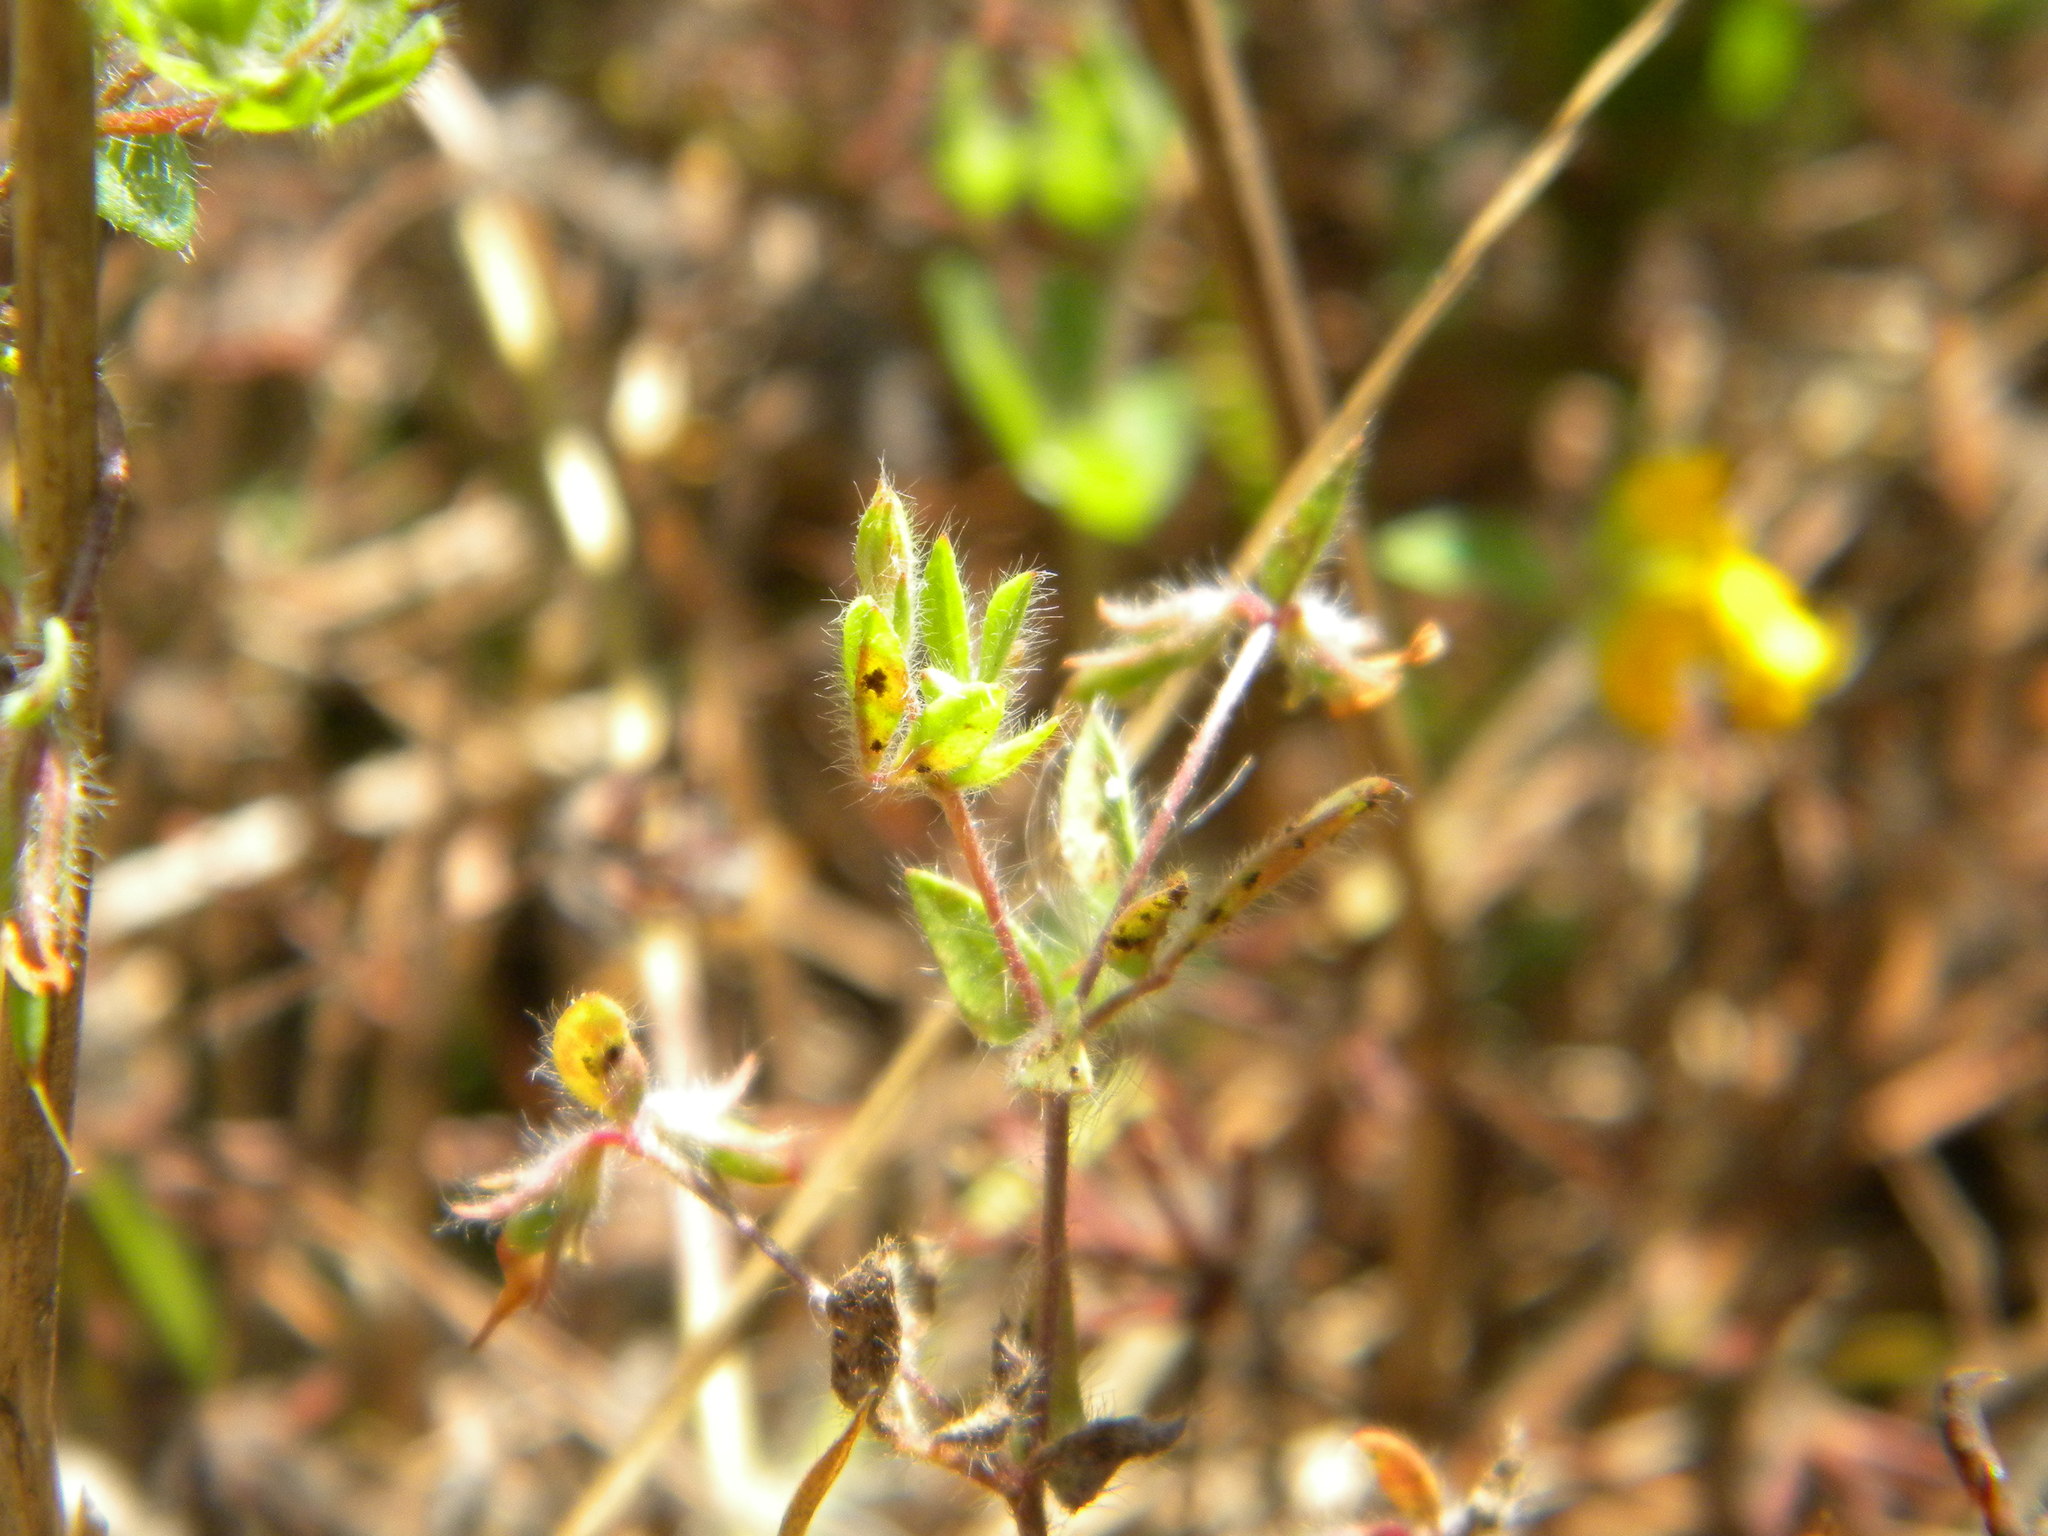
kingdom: Plantae
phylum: Tracheophyta
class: Magnoliopsida
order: Fabales
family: Fabaceae
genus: Lotus
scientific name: Lotus subbiflorus
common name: Hairy bird's-foot trefoil
